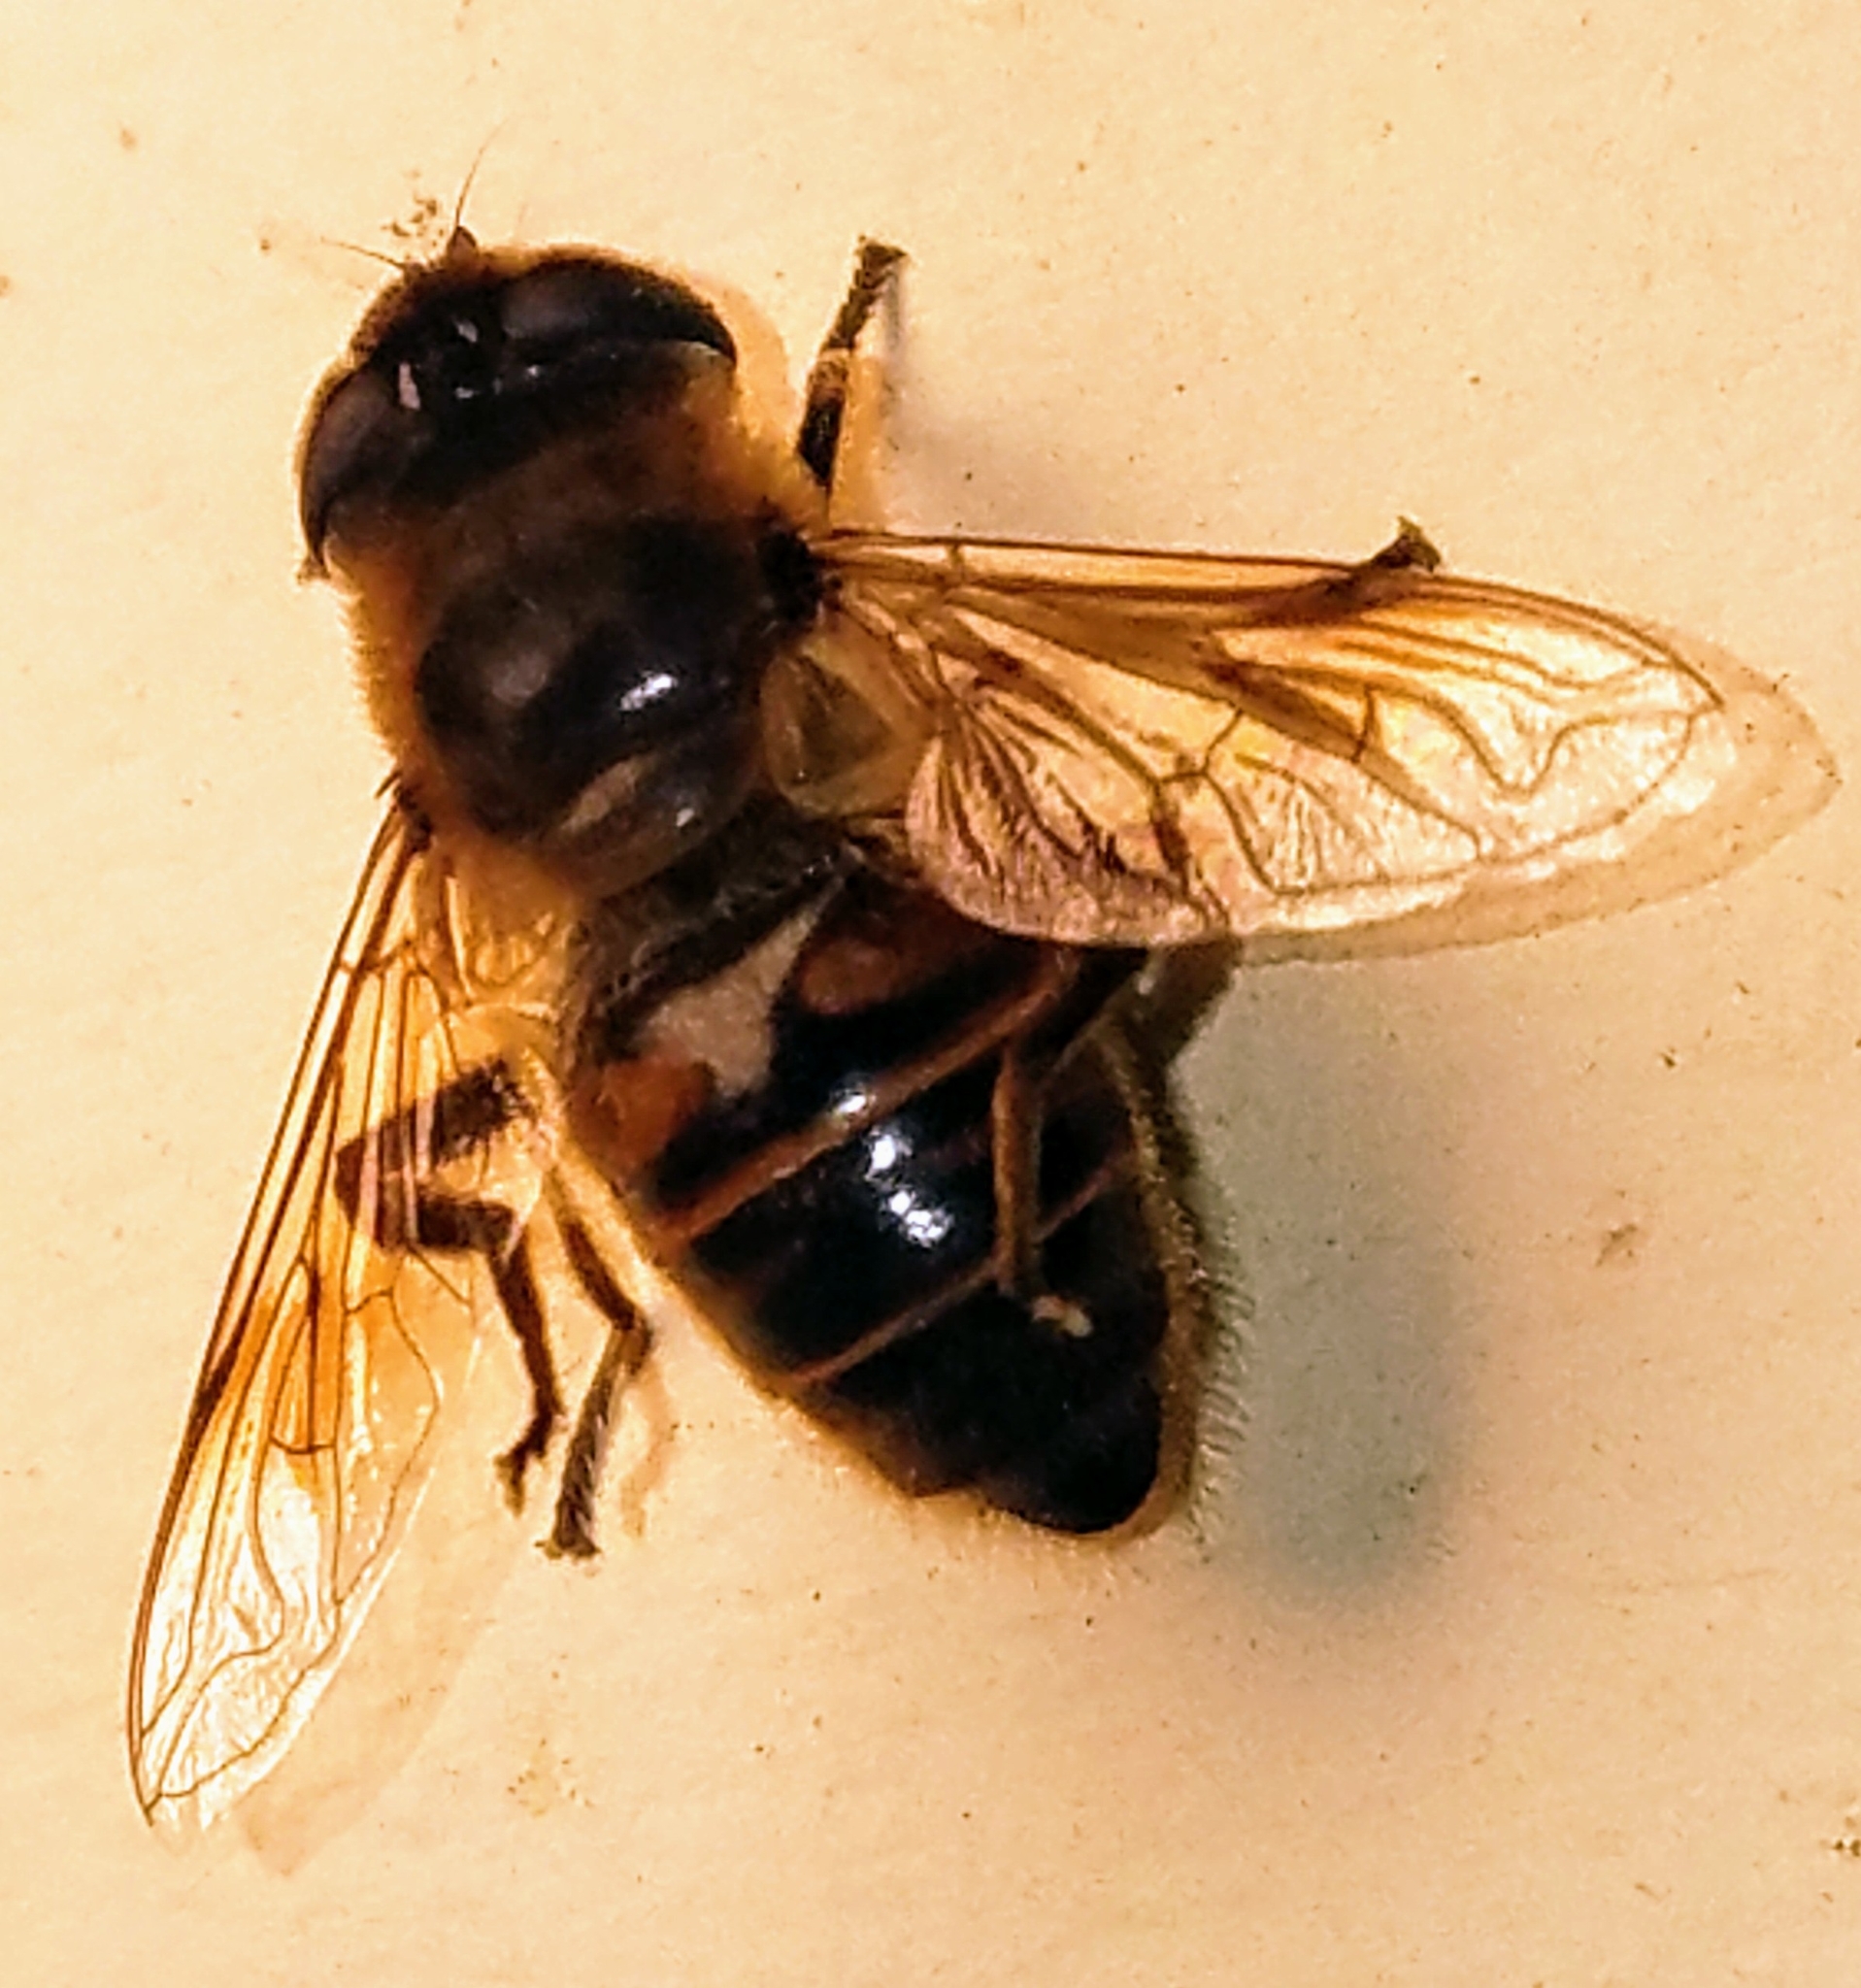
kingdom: Animalia
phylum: Arthropoda
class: Insecta
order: Diptera
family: Syrphidae
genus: Eristalis
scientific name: Eristalis tenax
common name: Drone fly
